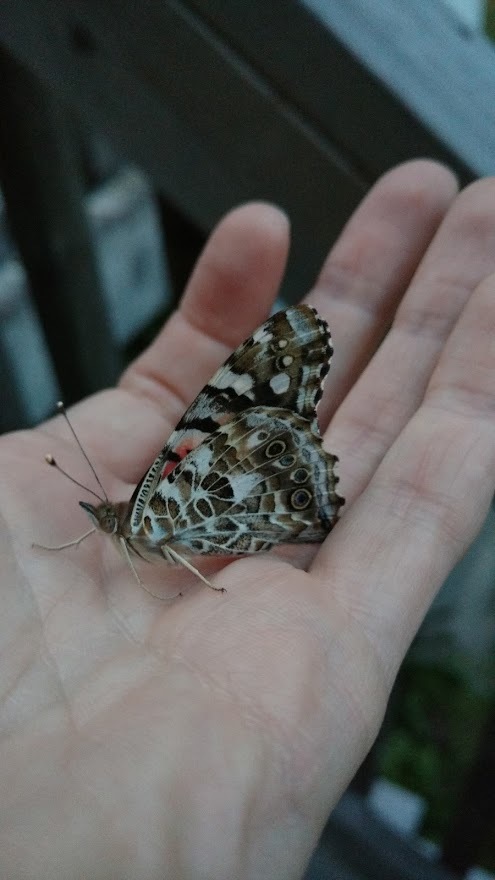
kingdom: Animalia
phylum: Arthropoda
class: Insecta
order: Lepidoptera
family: Nymphalidae
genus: Vanessa
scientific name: Vanessa cardui
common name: Painted lady
